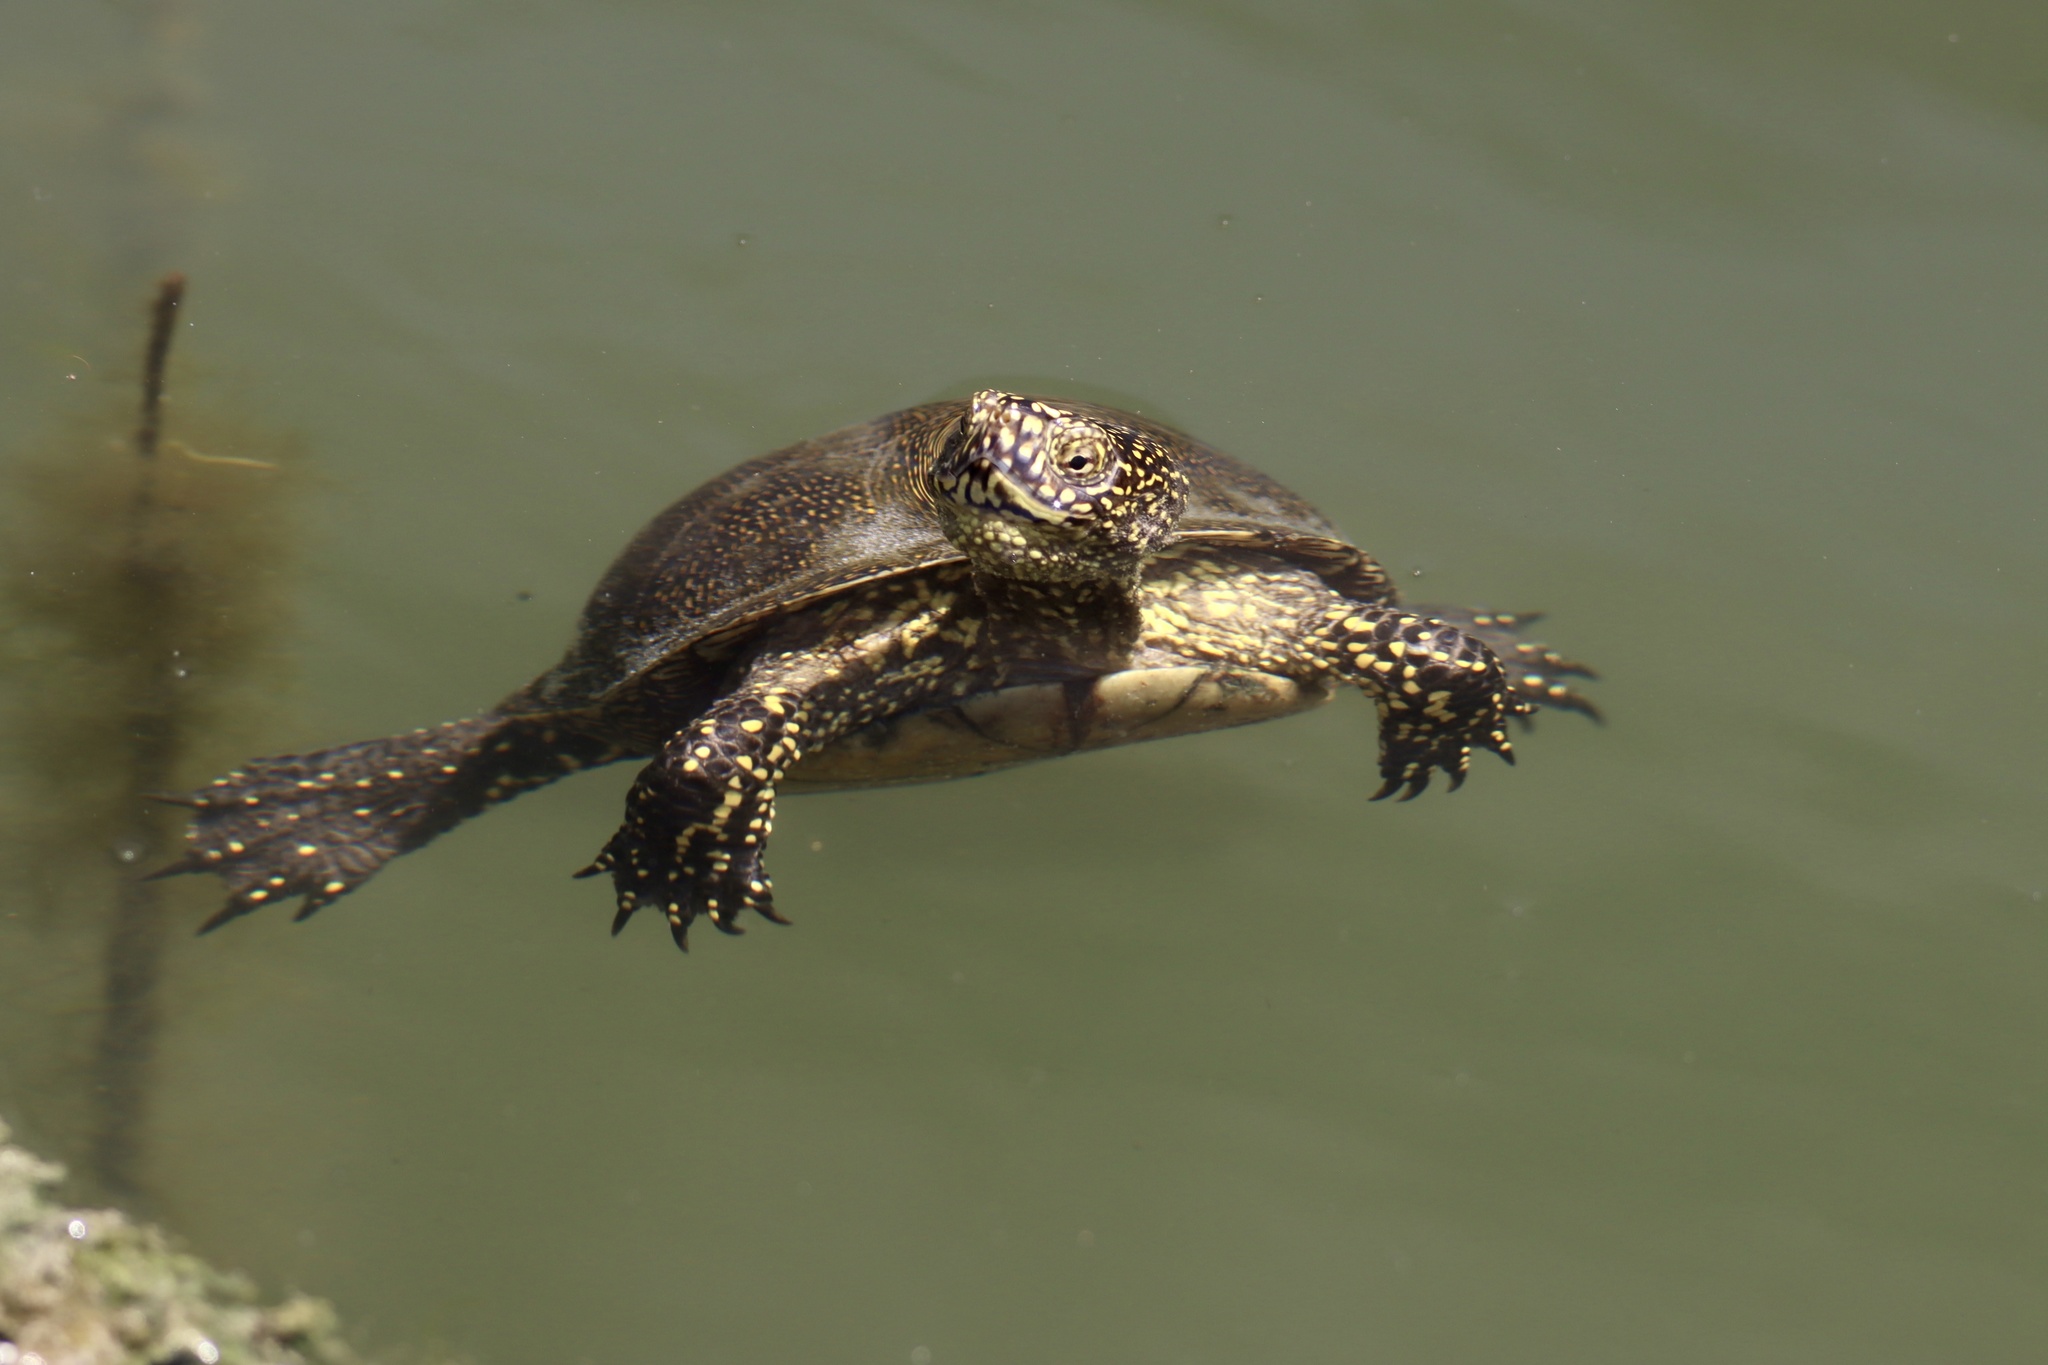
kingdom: Animalia
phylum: Chordata
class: Testudines
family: Emydidae
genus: Emys
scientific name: Emys orbicularis
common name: European pond turtle
